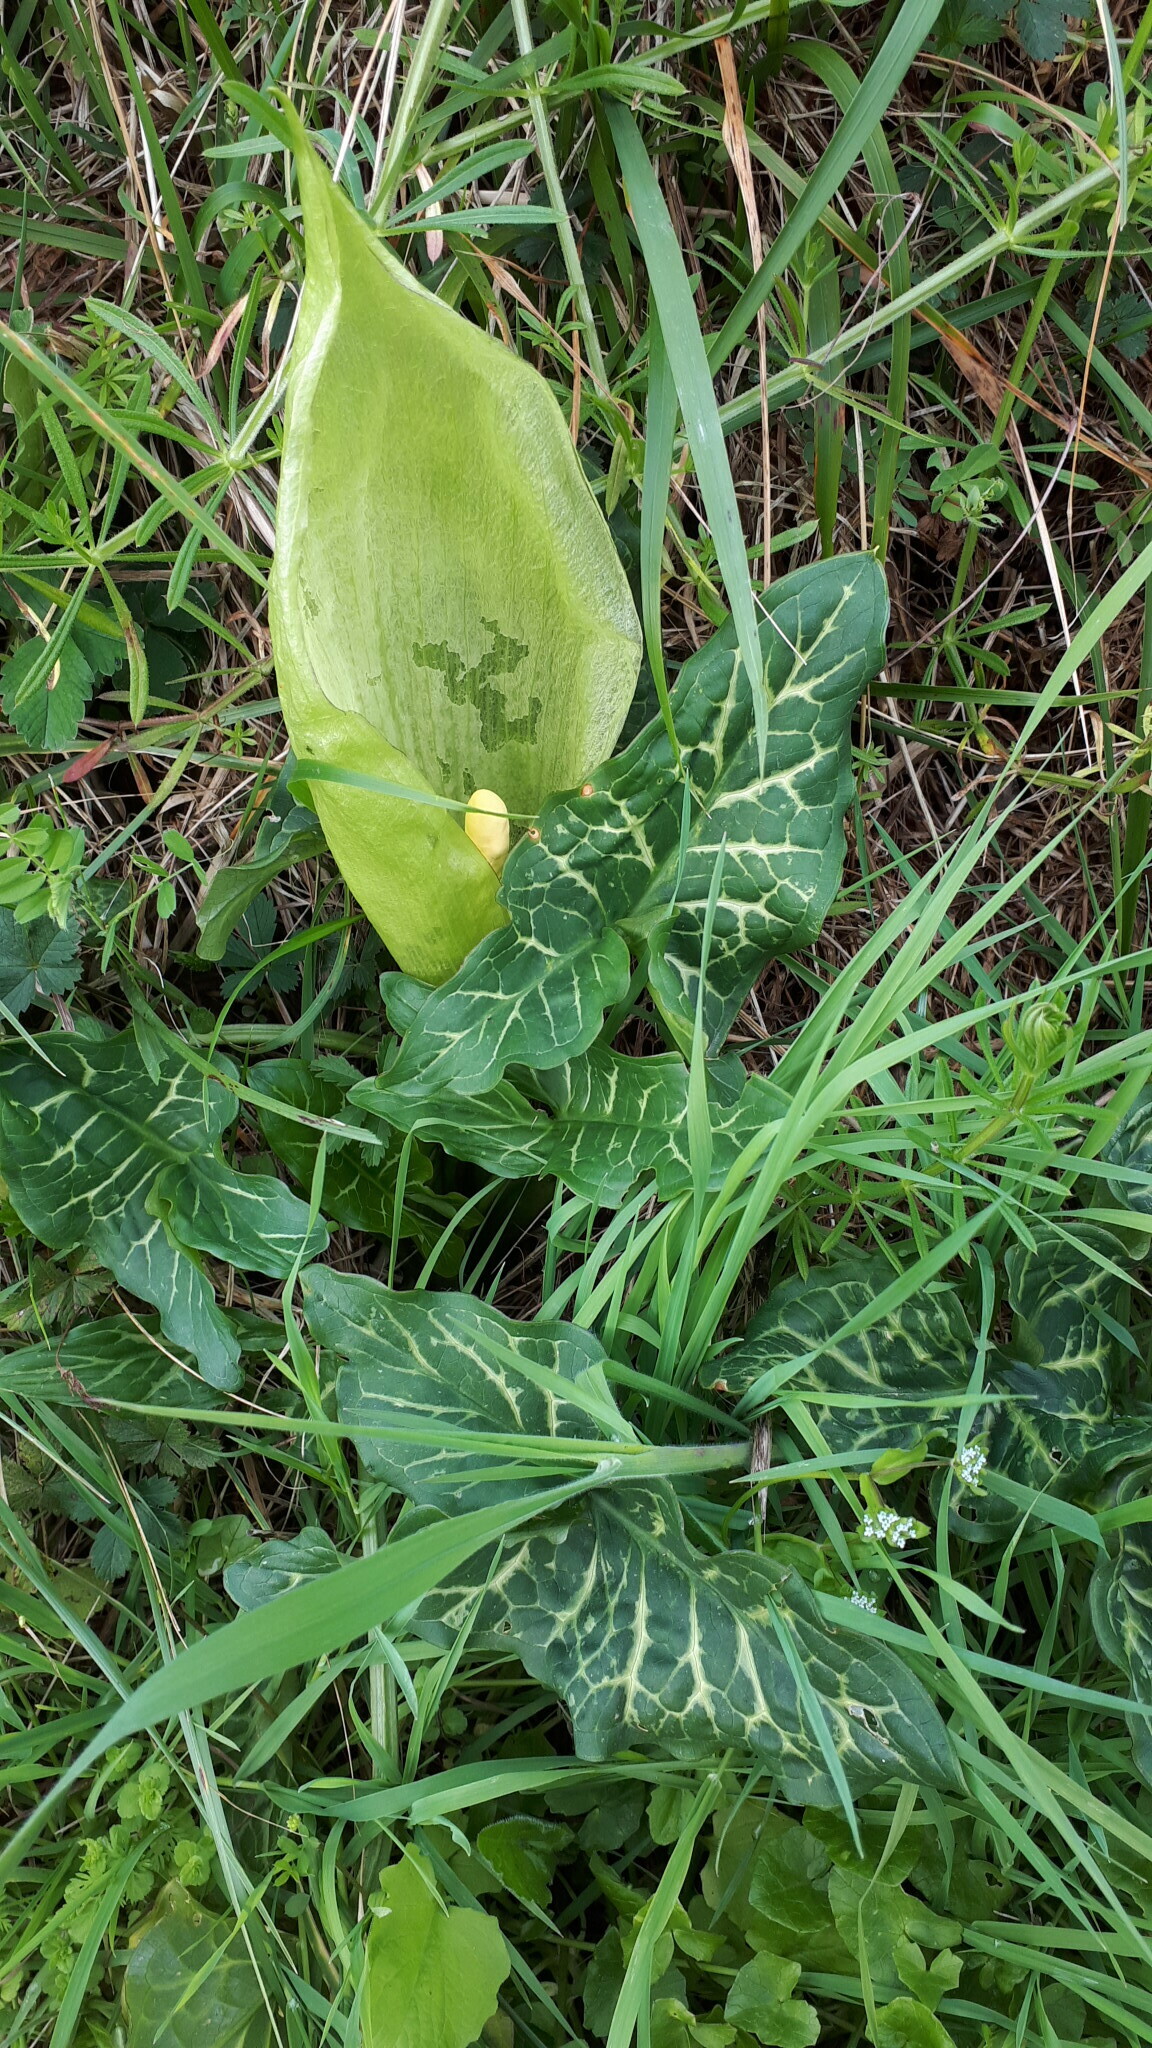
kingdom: Plantae
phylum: Tracheophyta
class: Liliopsida
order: Alismatales
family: Araceae
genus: Arum
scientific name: Arum italicum
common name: Italian lords-and-ladies
